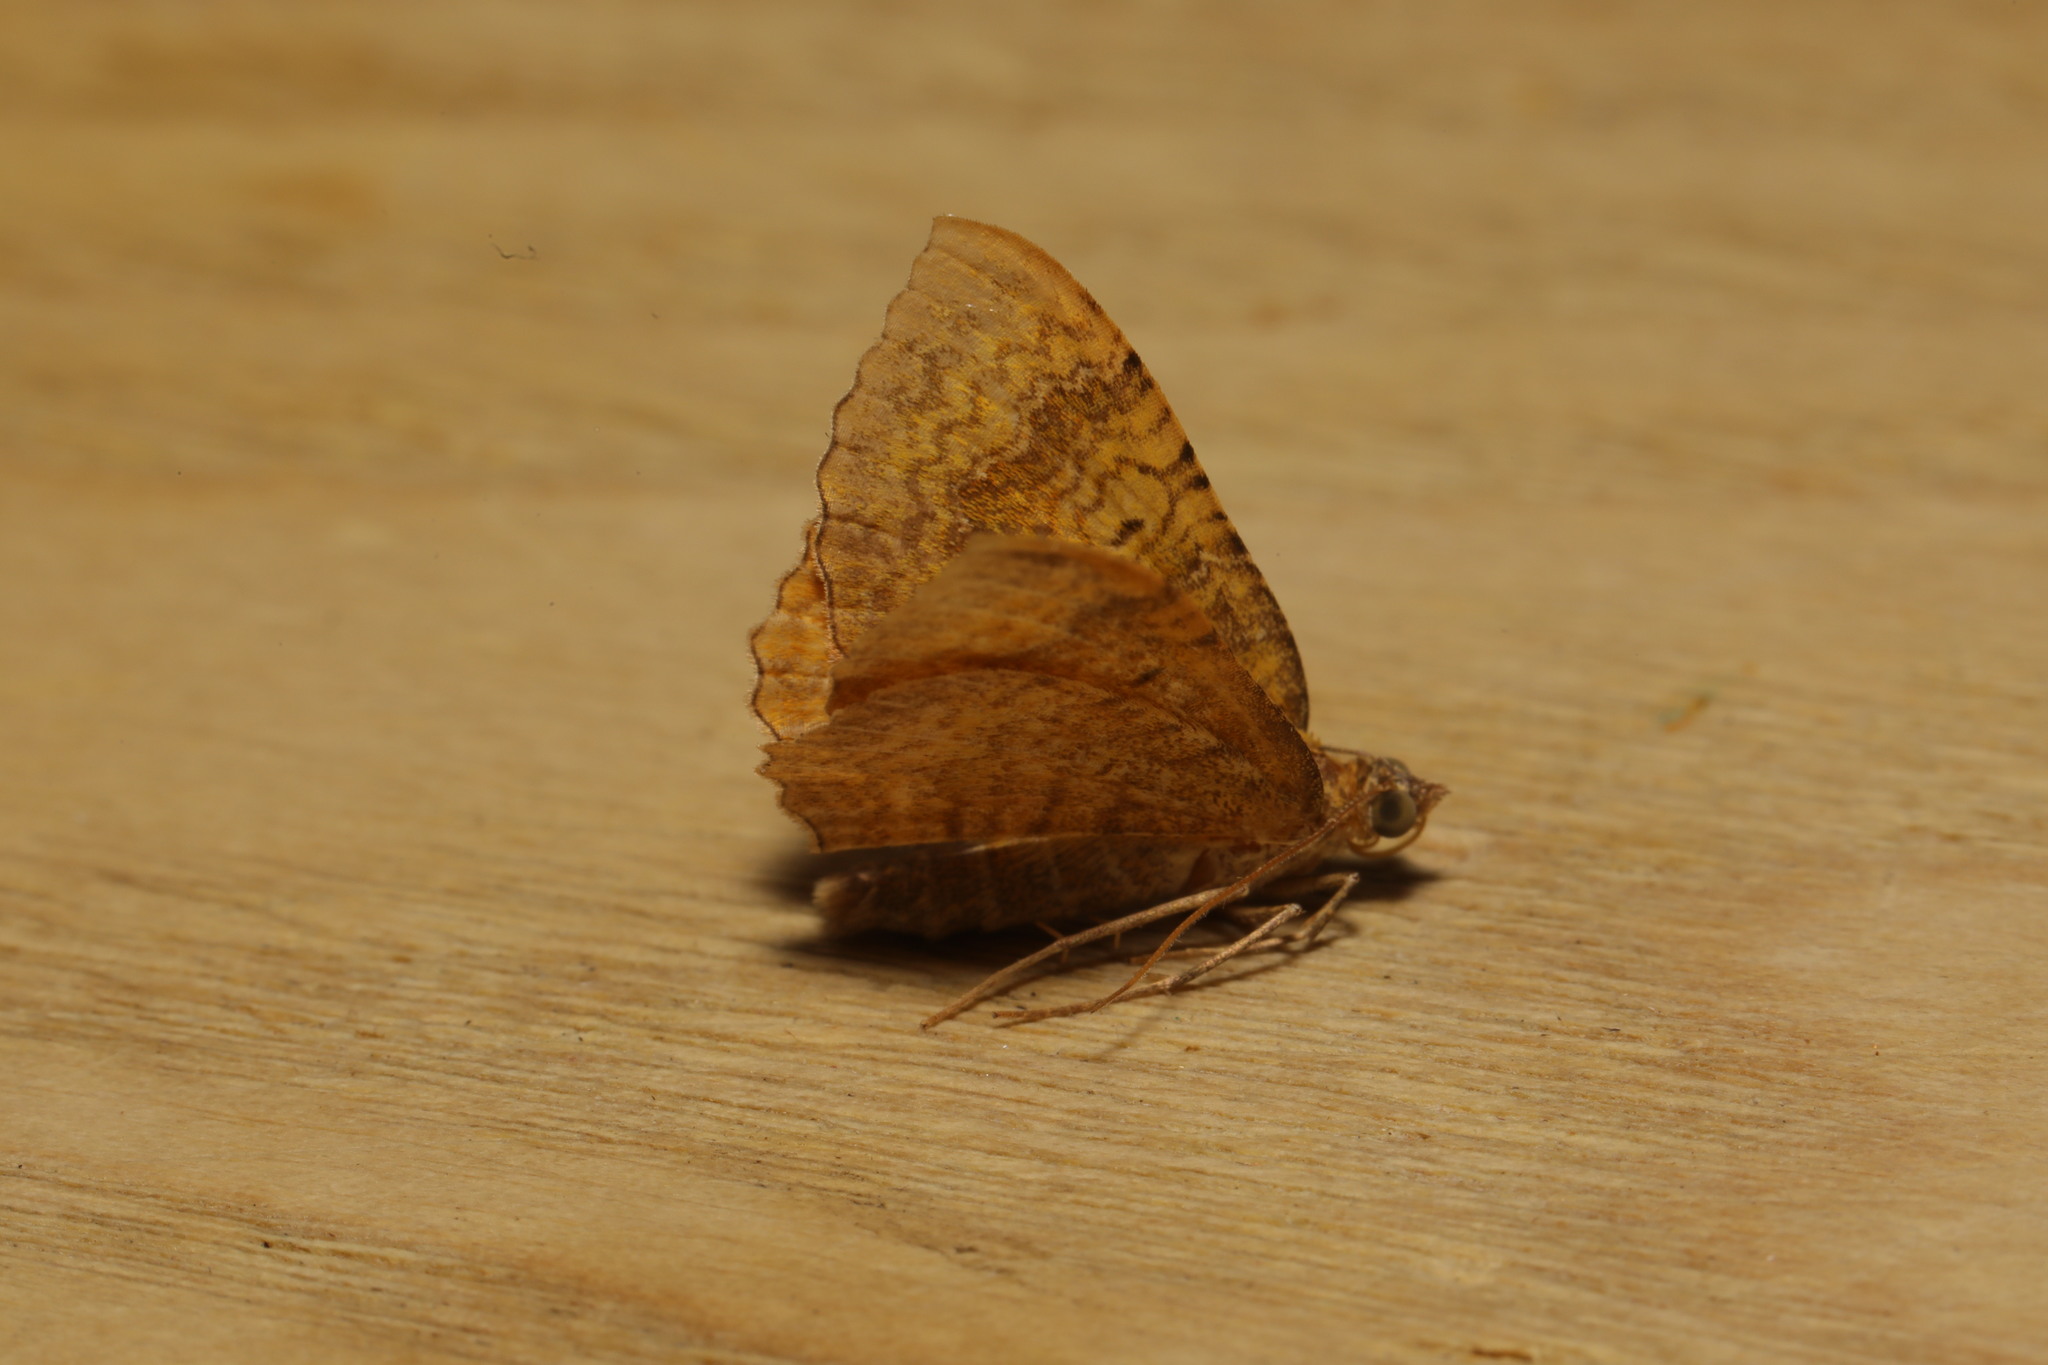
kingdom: Animalia
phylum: Arthropoda
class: Insecta
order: Lepidoptera
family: Geometridae
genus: Camptogramma
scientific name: Camptogramma bilineata
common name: Yellow shell
